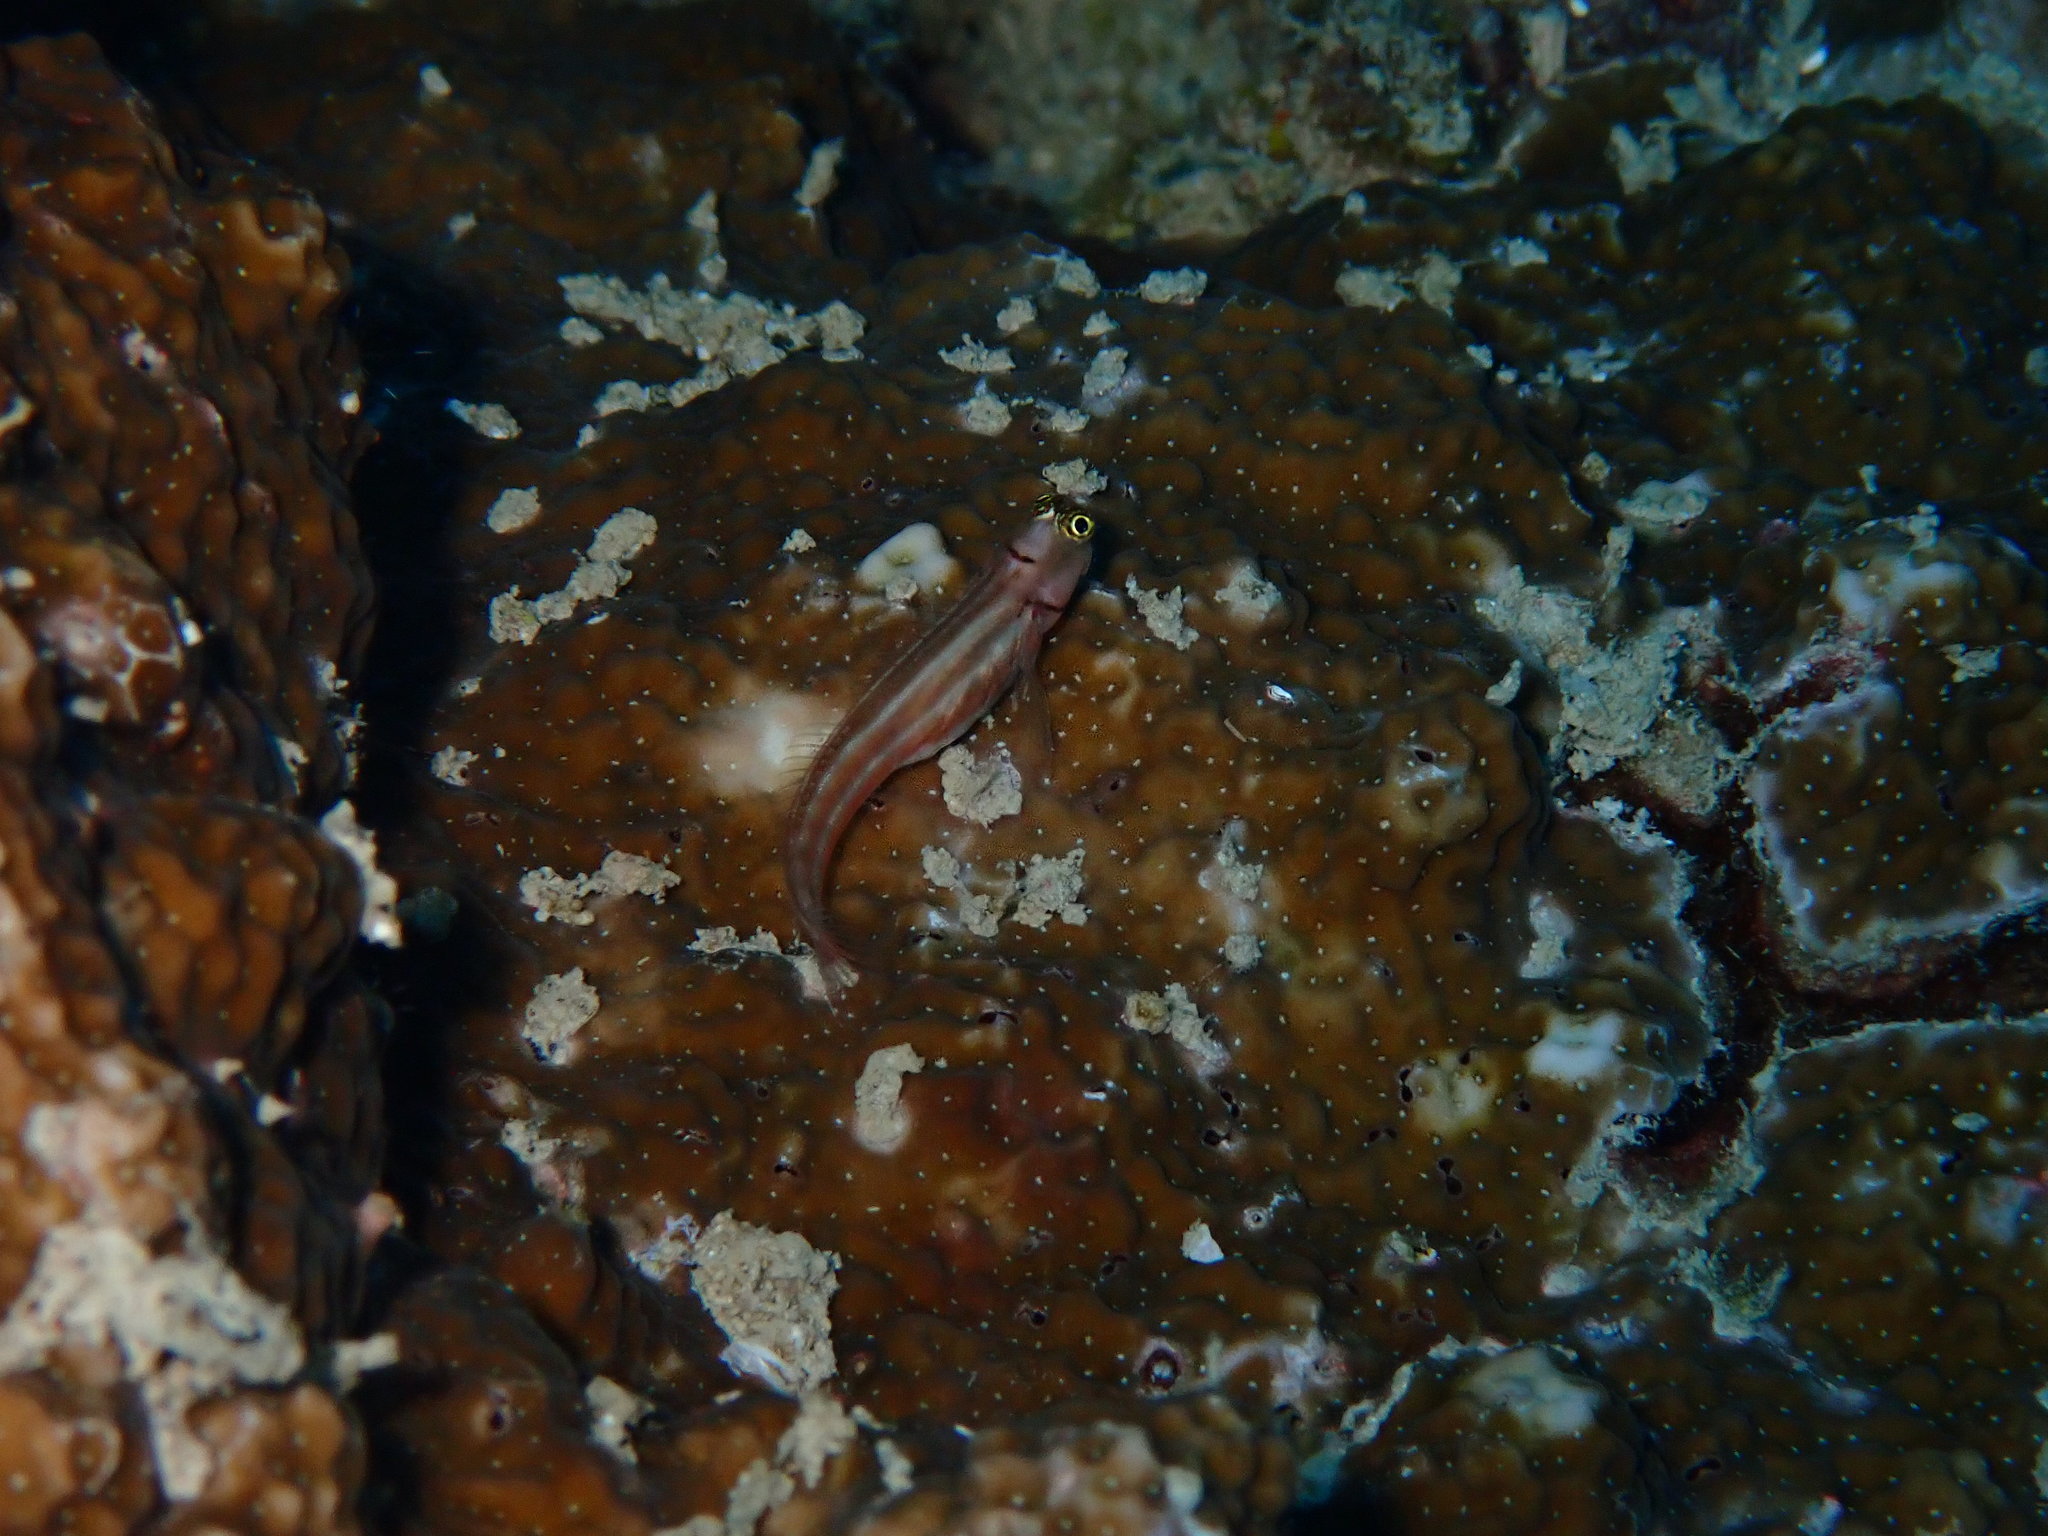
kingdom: Animalia
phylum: Chordata
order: Perciformes
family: Blenniidae
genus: Ecsenius
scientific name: Ecsenius lubbocki
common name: Lubbock's combtooth-blenny
